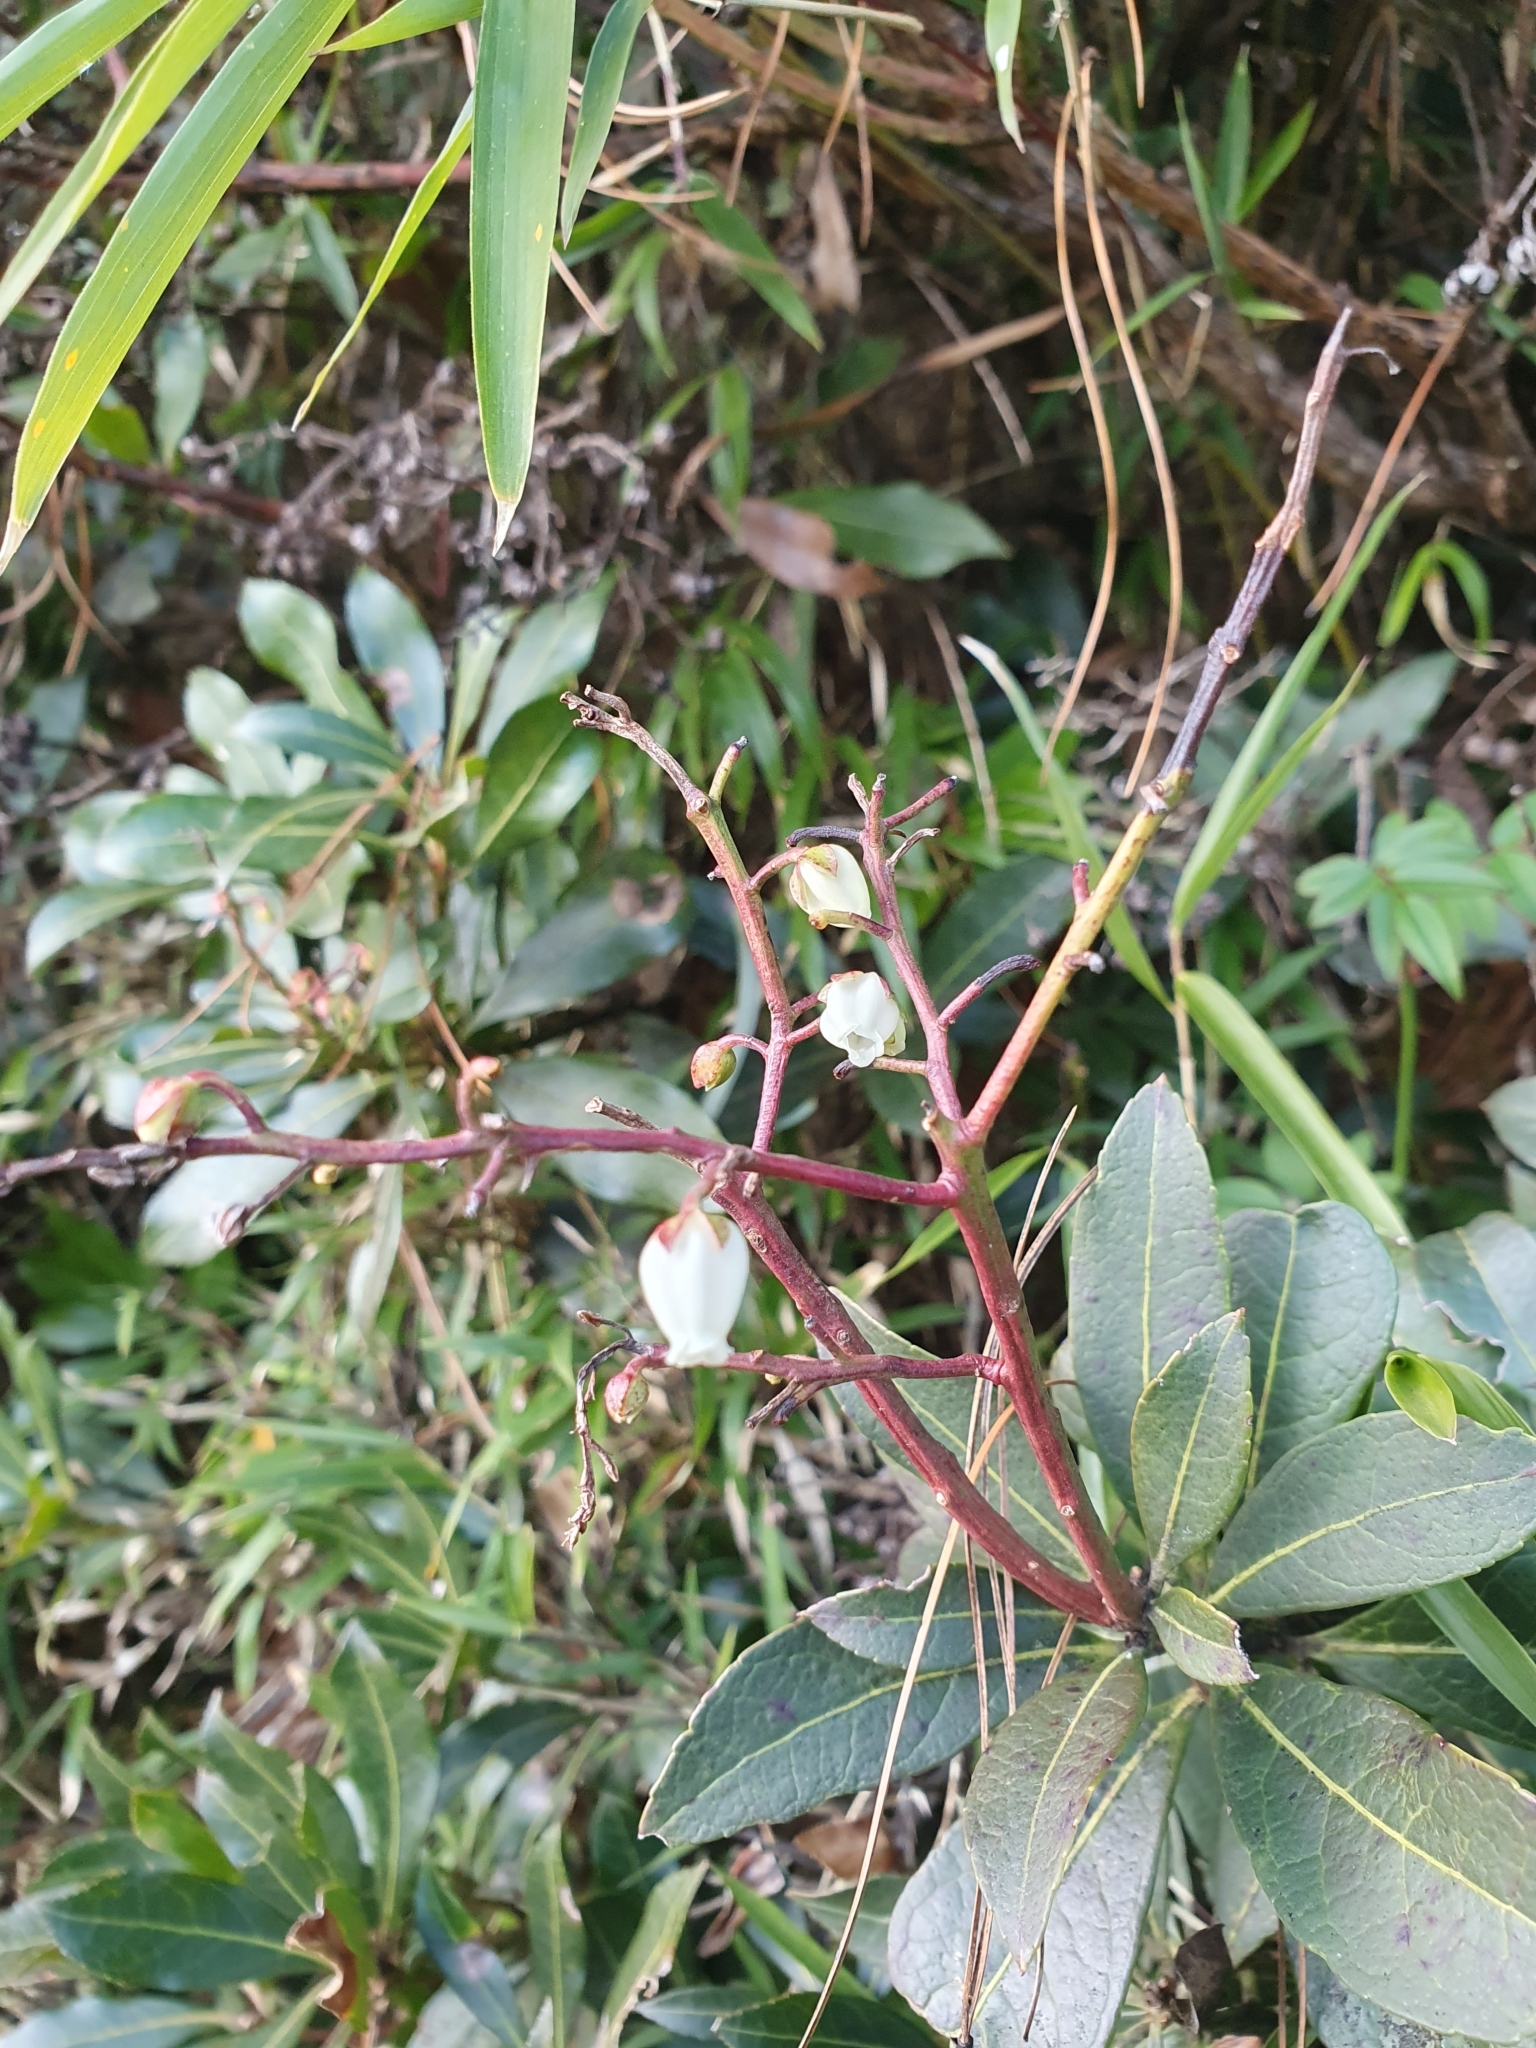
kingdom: Plantae
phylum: Tracheophyta
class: Magnoliopsida
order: Ericales
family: Ericaceae
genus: Pieris
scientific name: Pieris japonica
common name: Japanese pieris
